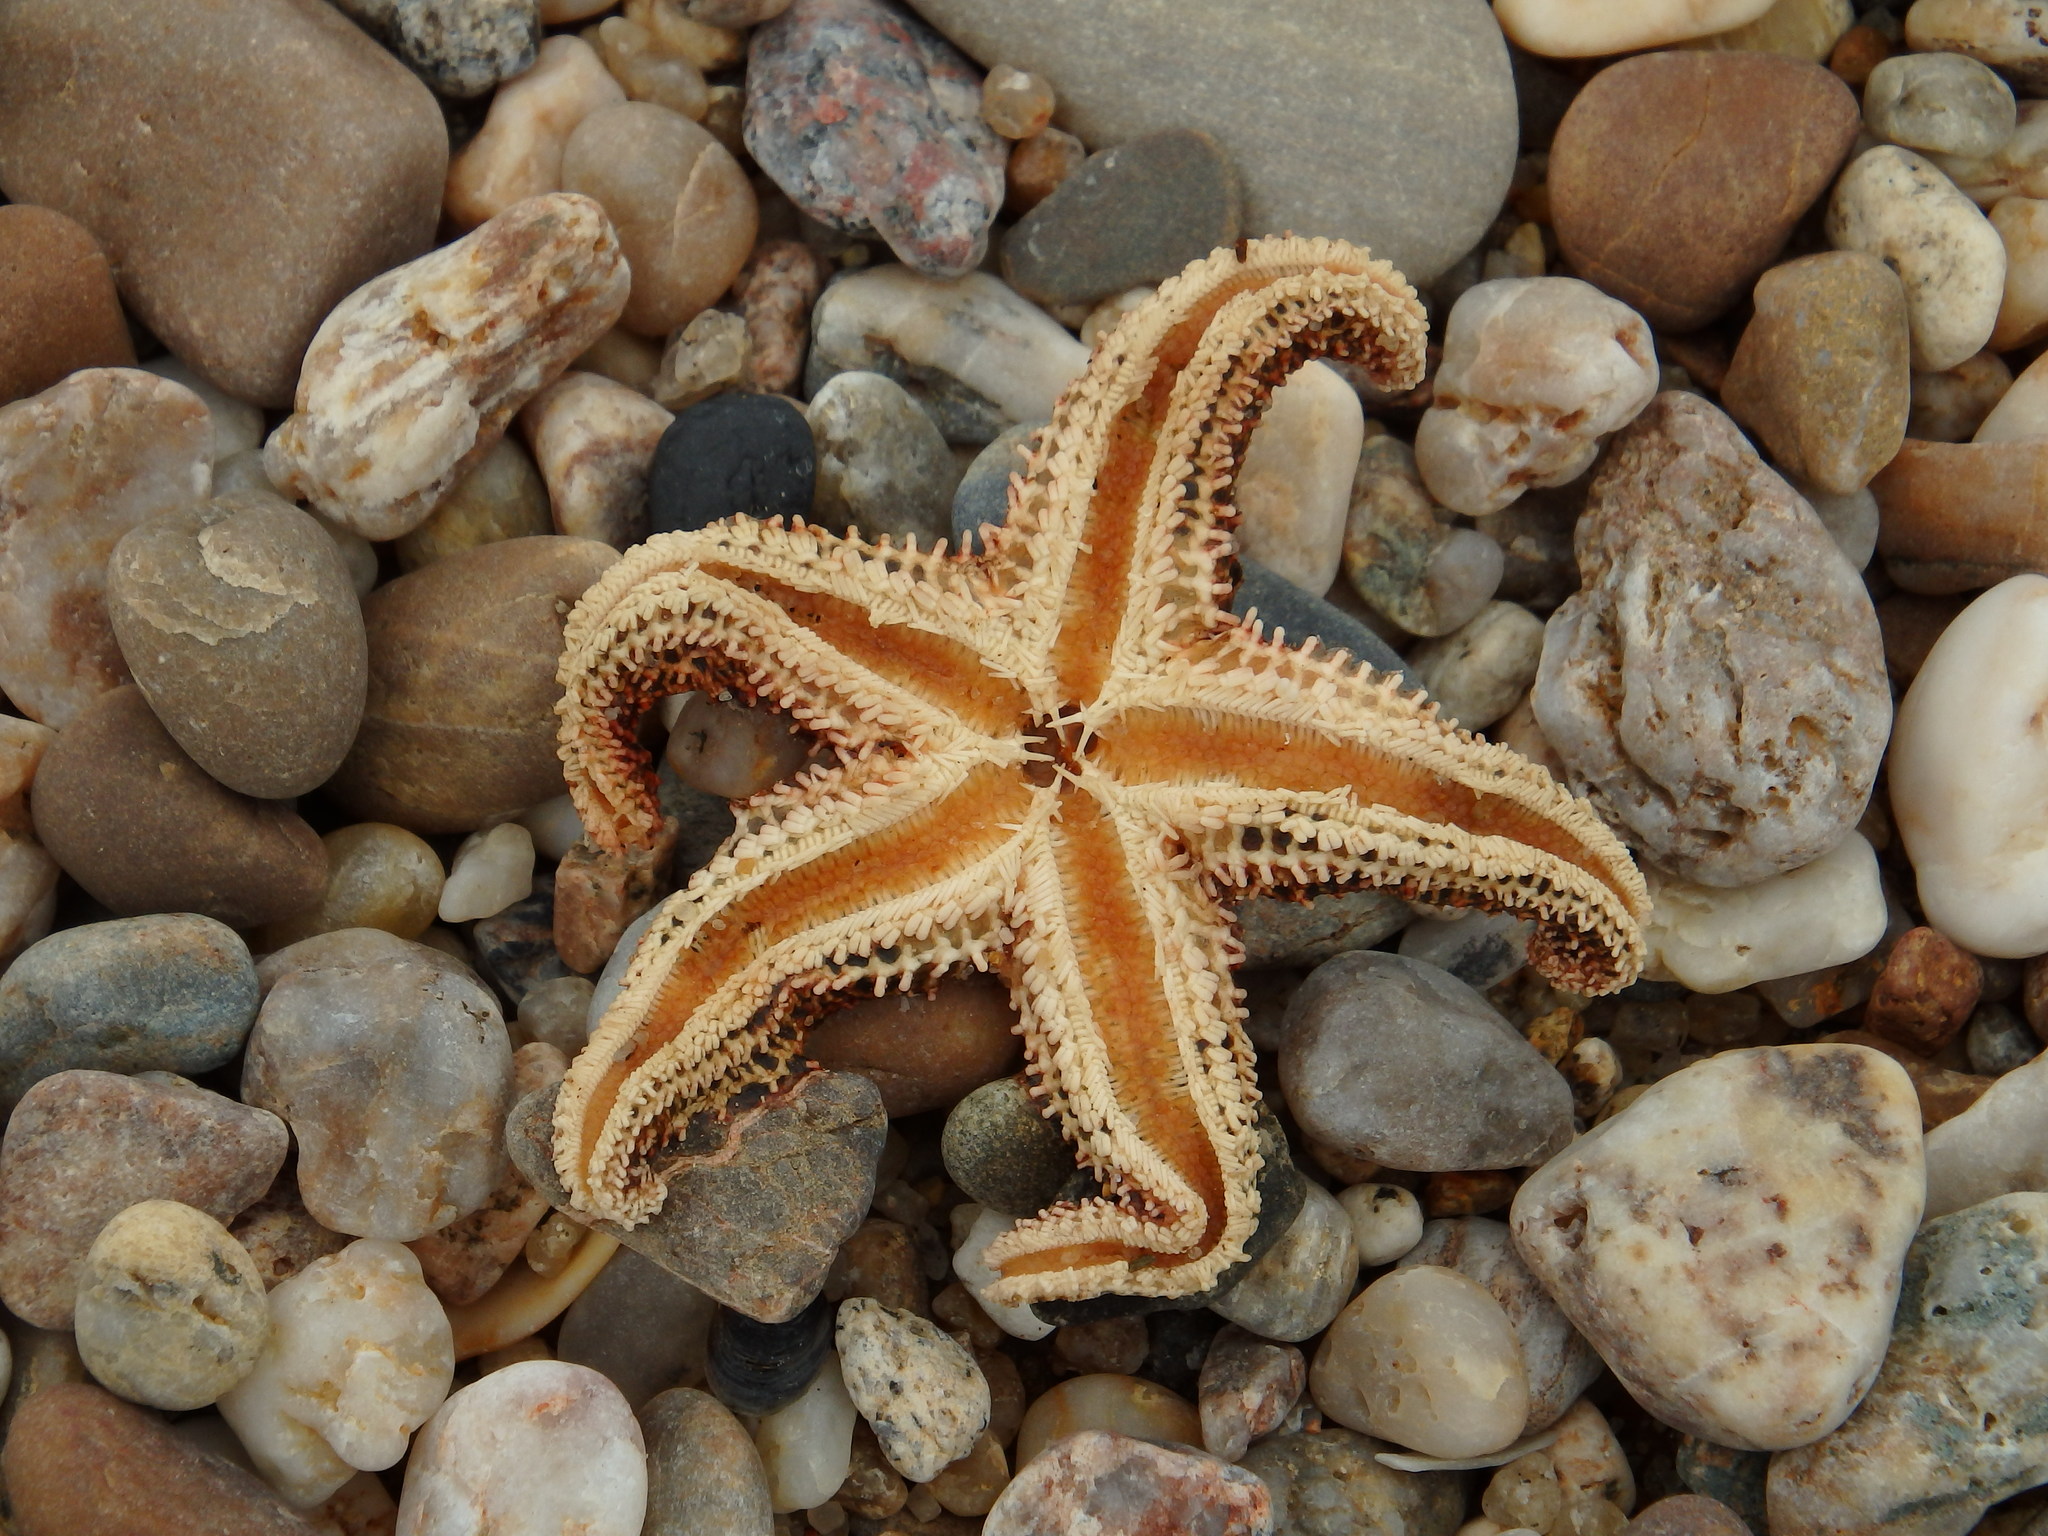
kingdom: Animalia
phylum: Echinodermata
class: Asteroidea
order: Forcipulatida
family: Asteriidae
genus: Asterias
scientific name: Asterias rubens
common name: Common starfish
